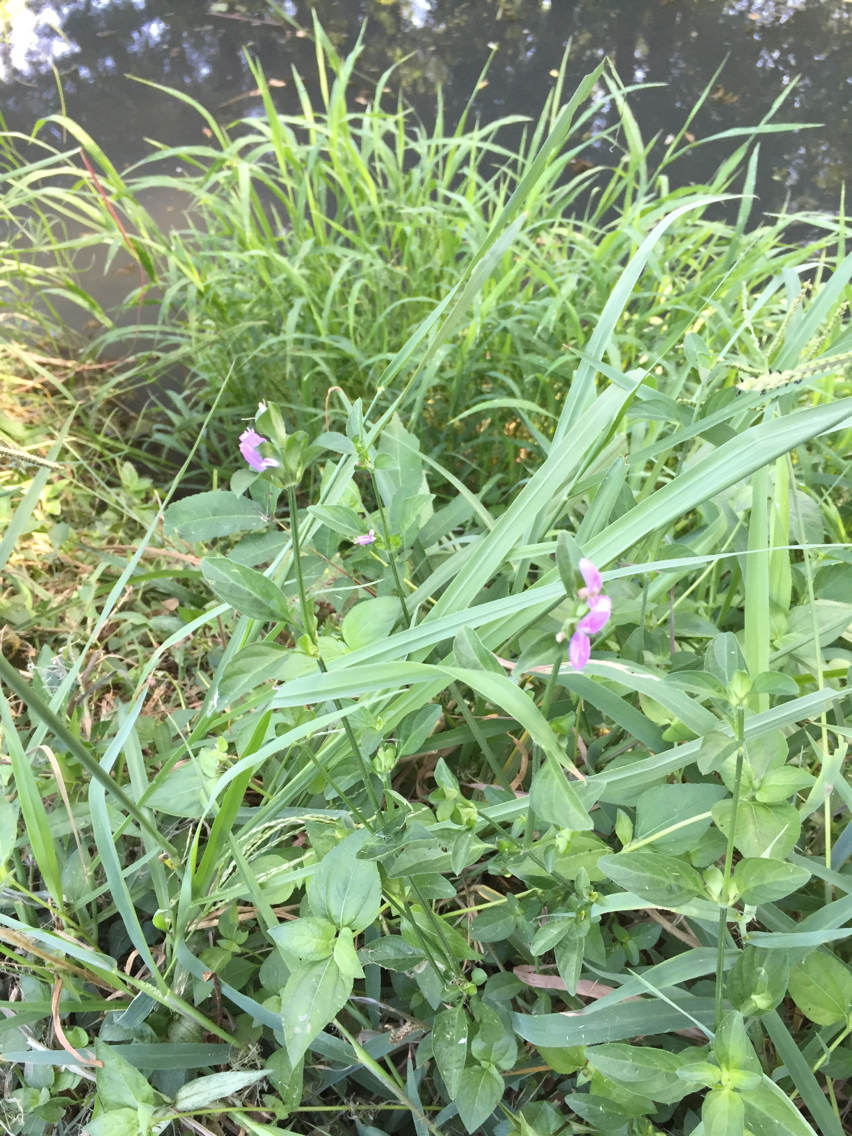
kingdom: Plantae
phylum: Tracheophyta
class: Magnoliopsida
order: Lamiales
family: Acanthaceae
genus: Dicliptera
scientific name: Dicliptera brachiata
